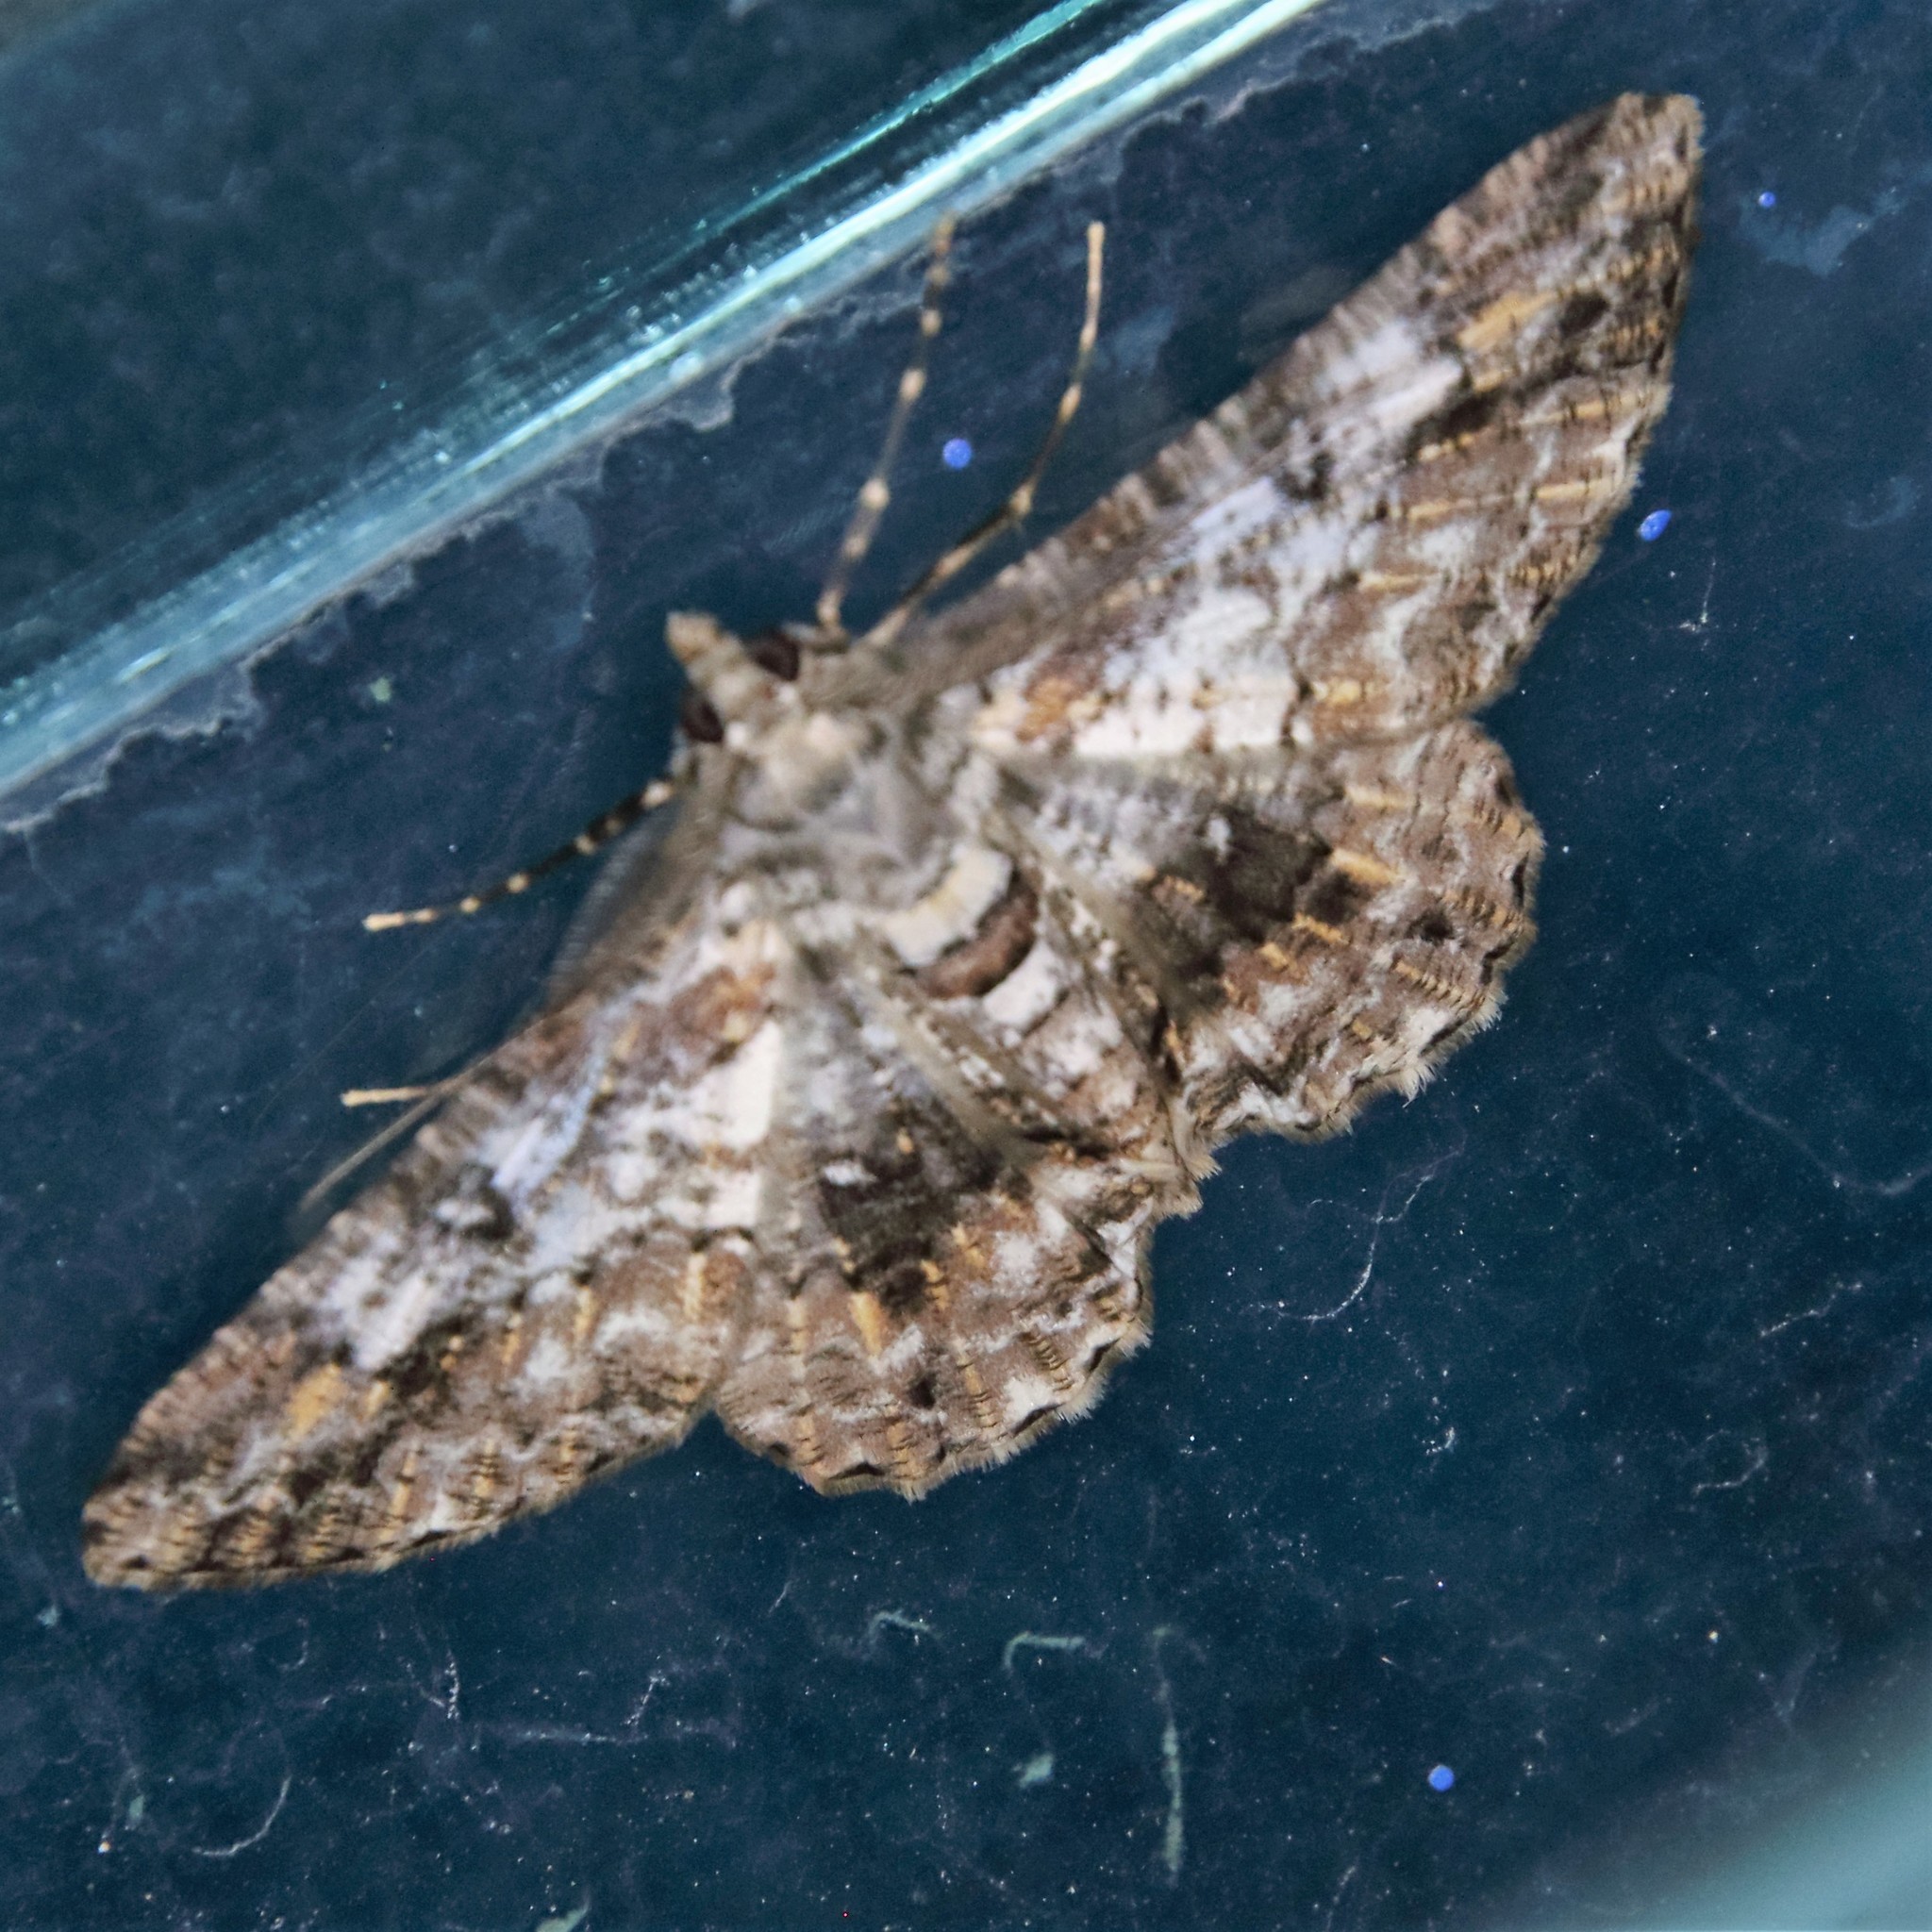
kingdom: Animalia
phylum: Arthropoda
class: Insecta
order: Lepidoptera
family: Geometridae
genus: Cleora
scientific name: Cleora alienaria
